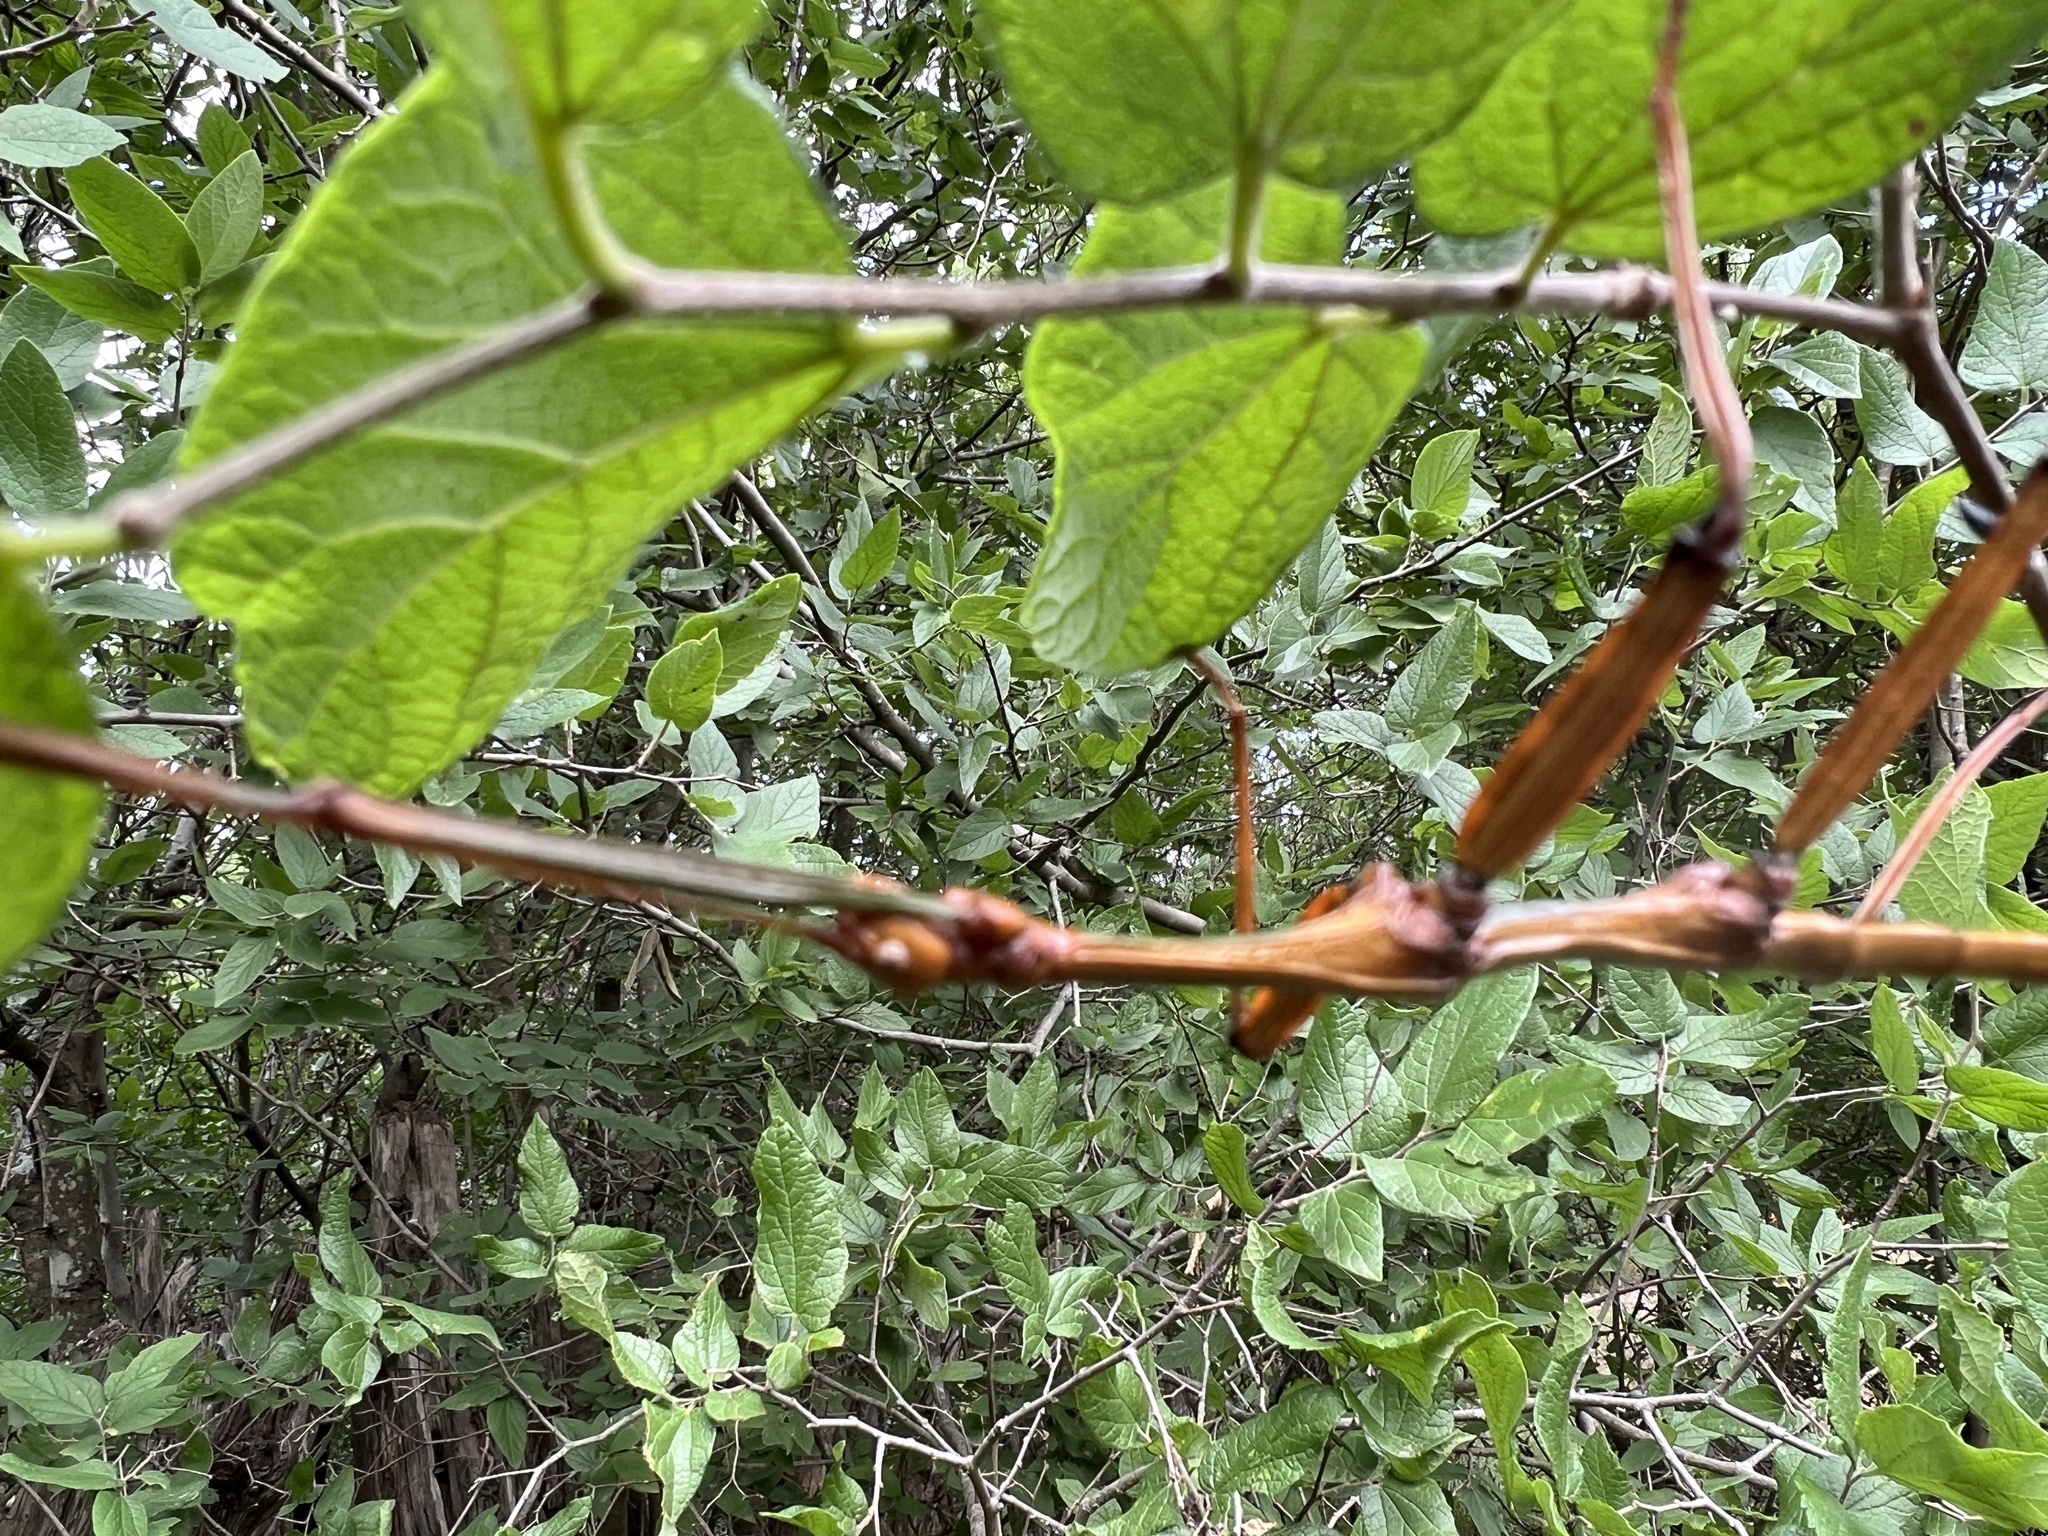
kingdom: Animalia
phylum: Arthropoda
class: Insecta
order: Phasmida
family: Diapheromeridae
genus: Megaphasma
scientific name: Megaphasma denticrus
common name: Giant walkingstick
